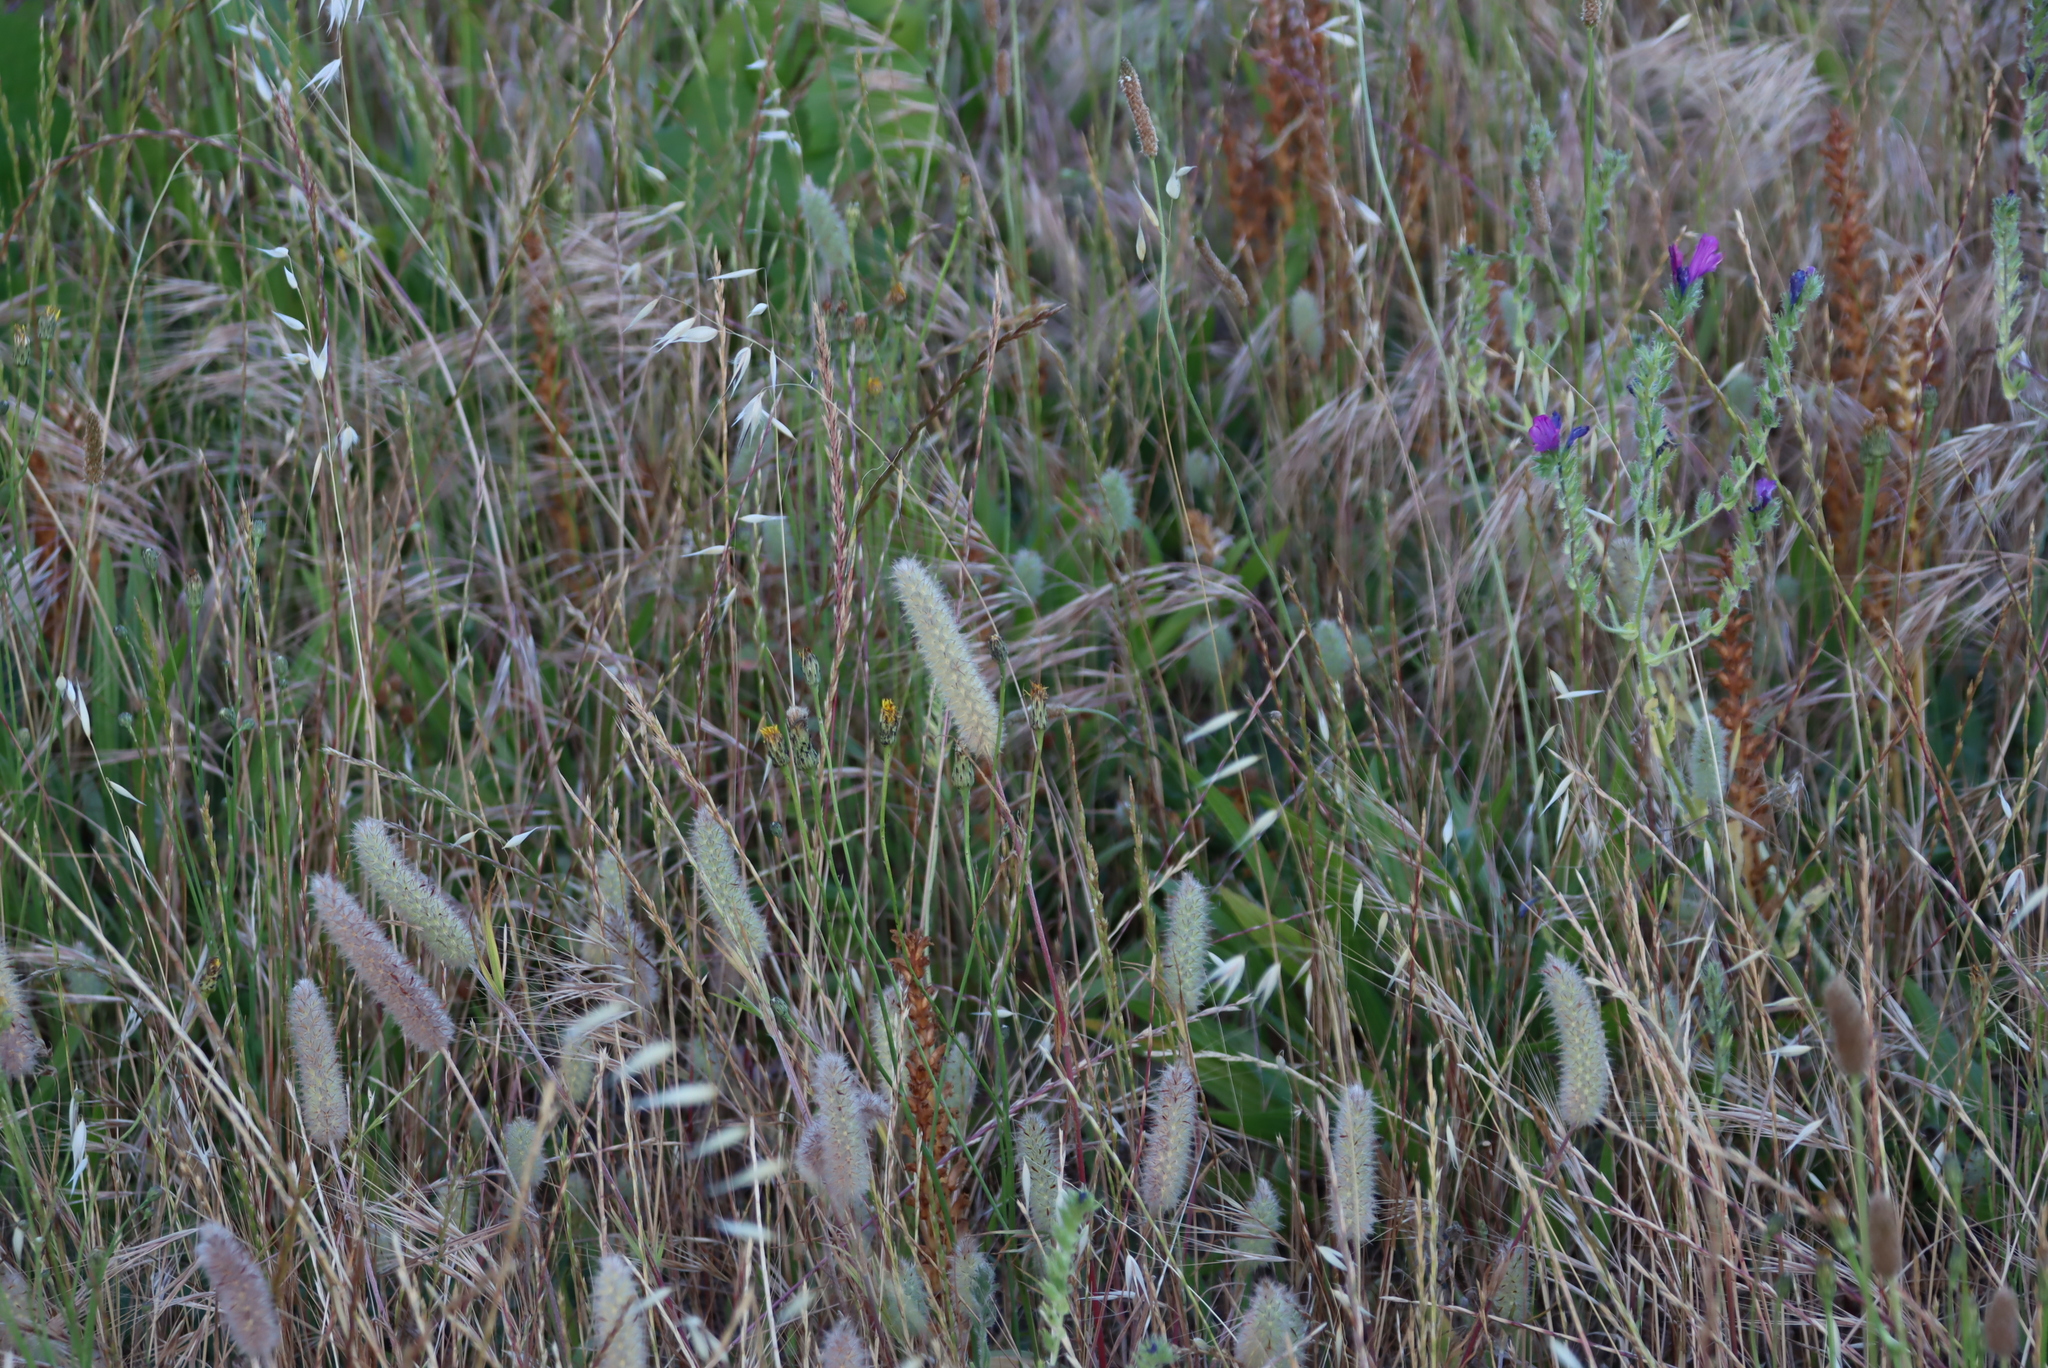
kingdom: Plantae
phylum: Tracheophyta
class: Magnoliopsida
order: Fabales
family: Fabaceae
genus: Trifolium
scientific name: Trifolium angustifolium
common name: Narrow clover
